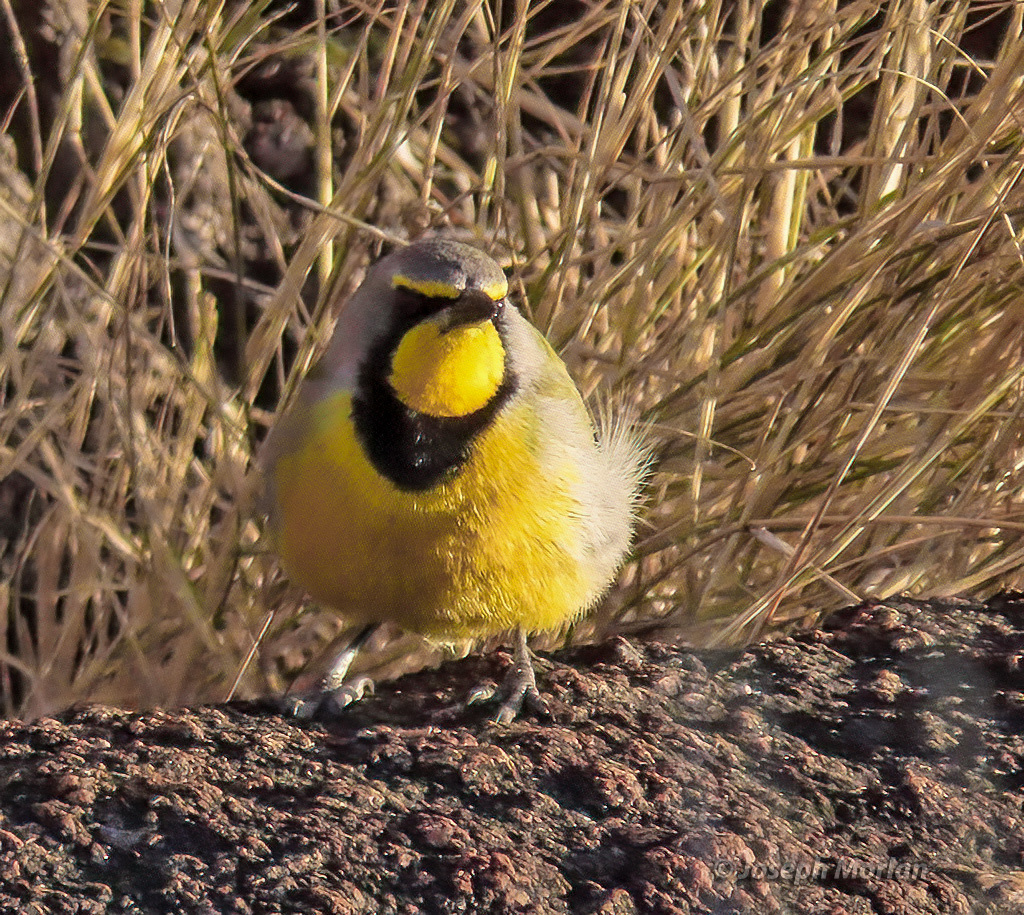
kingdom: Animalia
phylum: Chordata
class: Aves
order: Passeriformes
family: Malaconotidae
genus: Telophorus
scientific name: Telophorus zeylonus
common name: Bokmakierie
